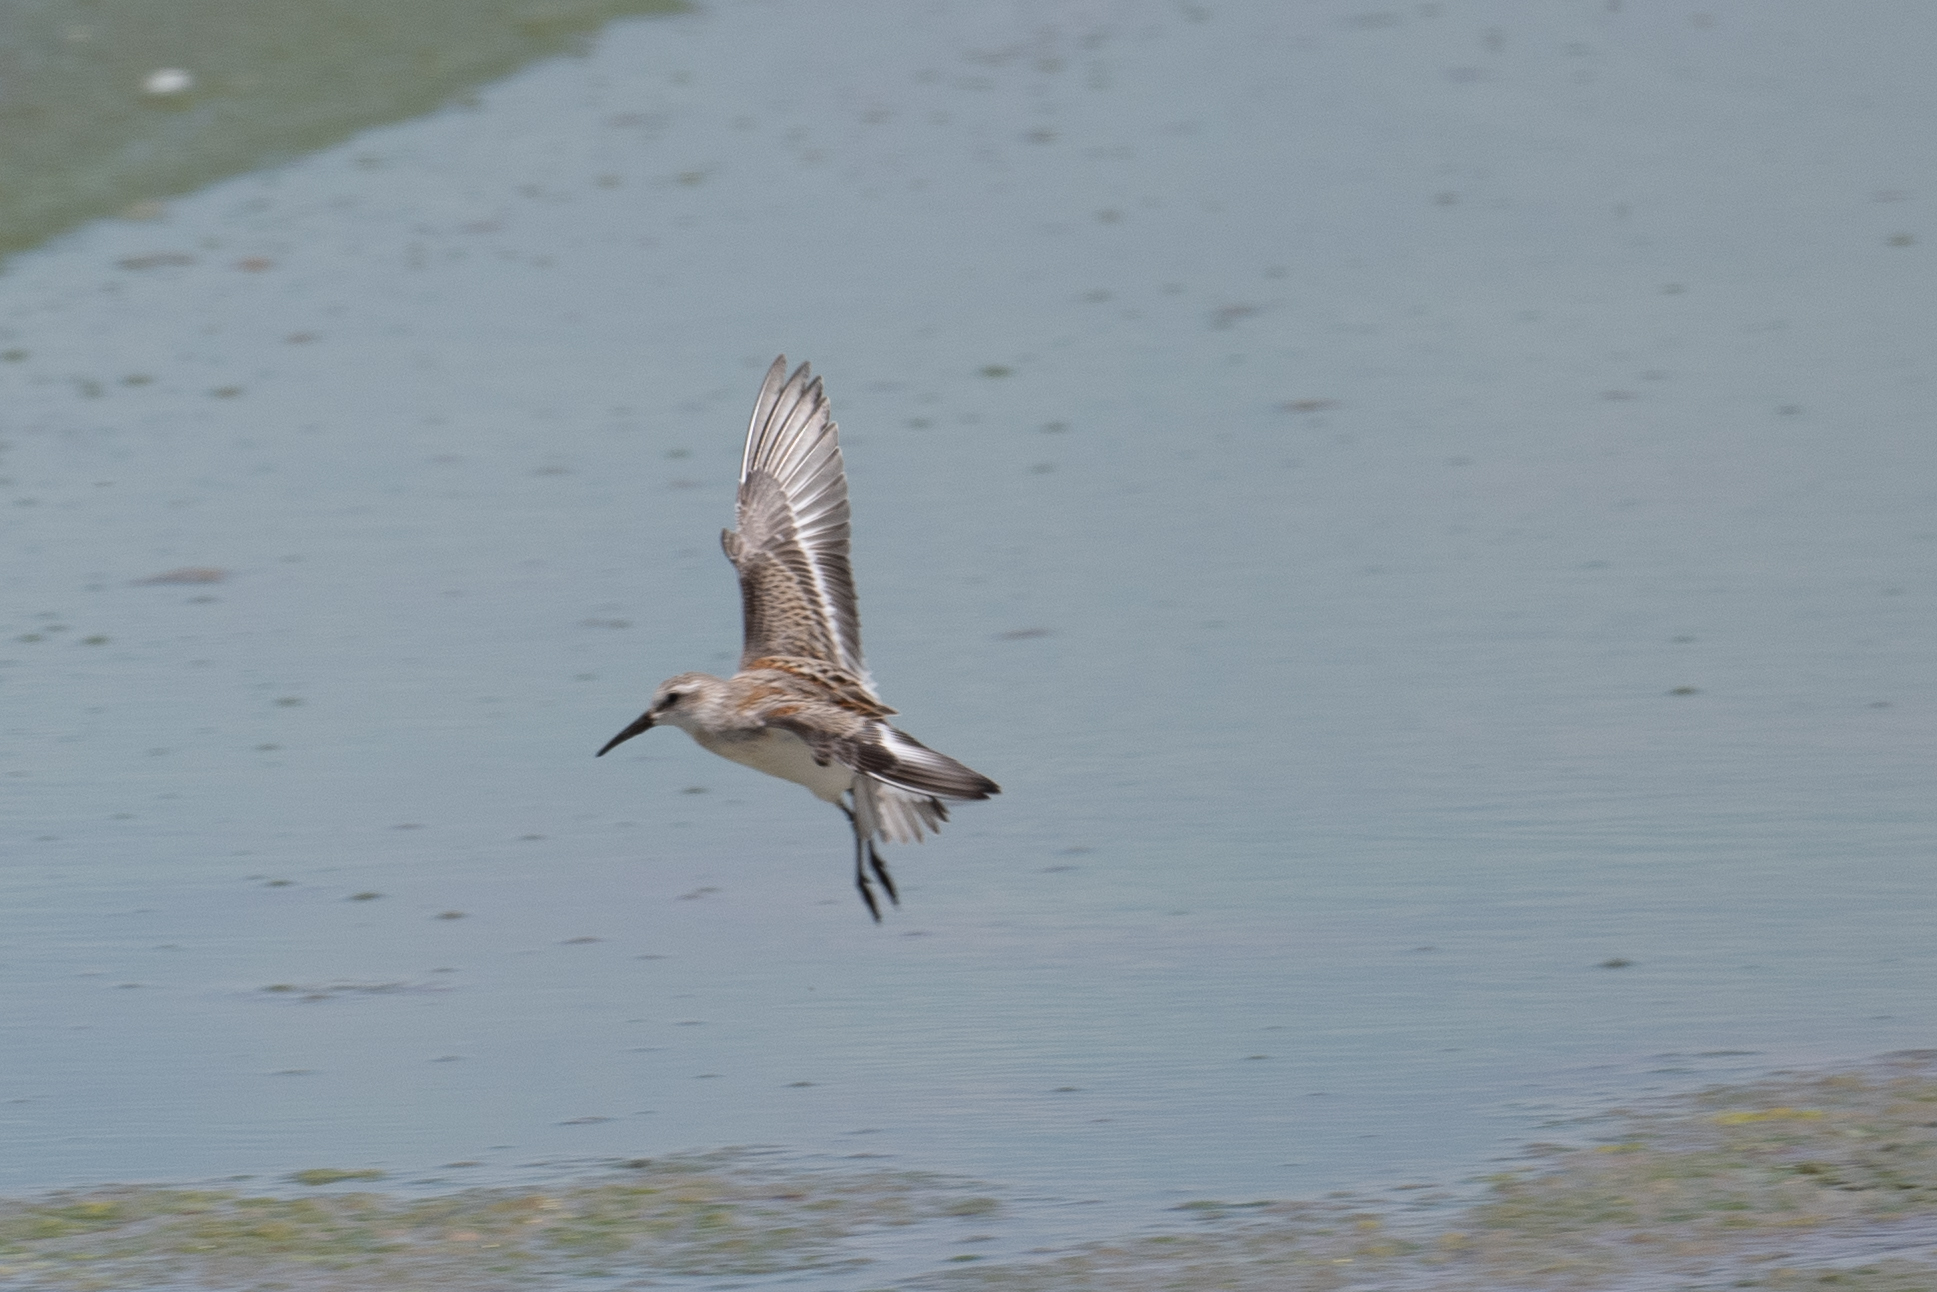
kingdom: Animalia
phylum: Chordata
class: Aves
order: Charadriiformes
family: Scolopacidae
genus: Calidris
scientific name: Calidris mauri
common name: Western sandpiper
